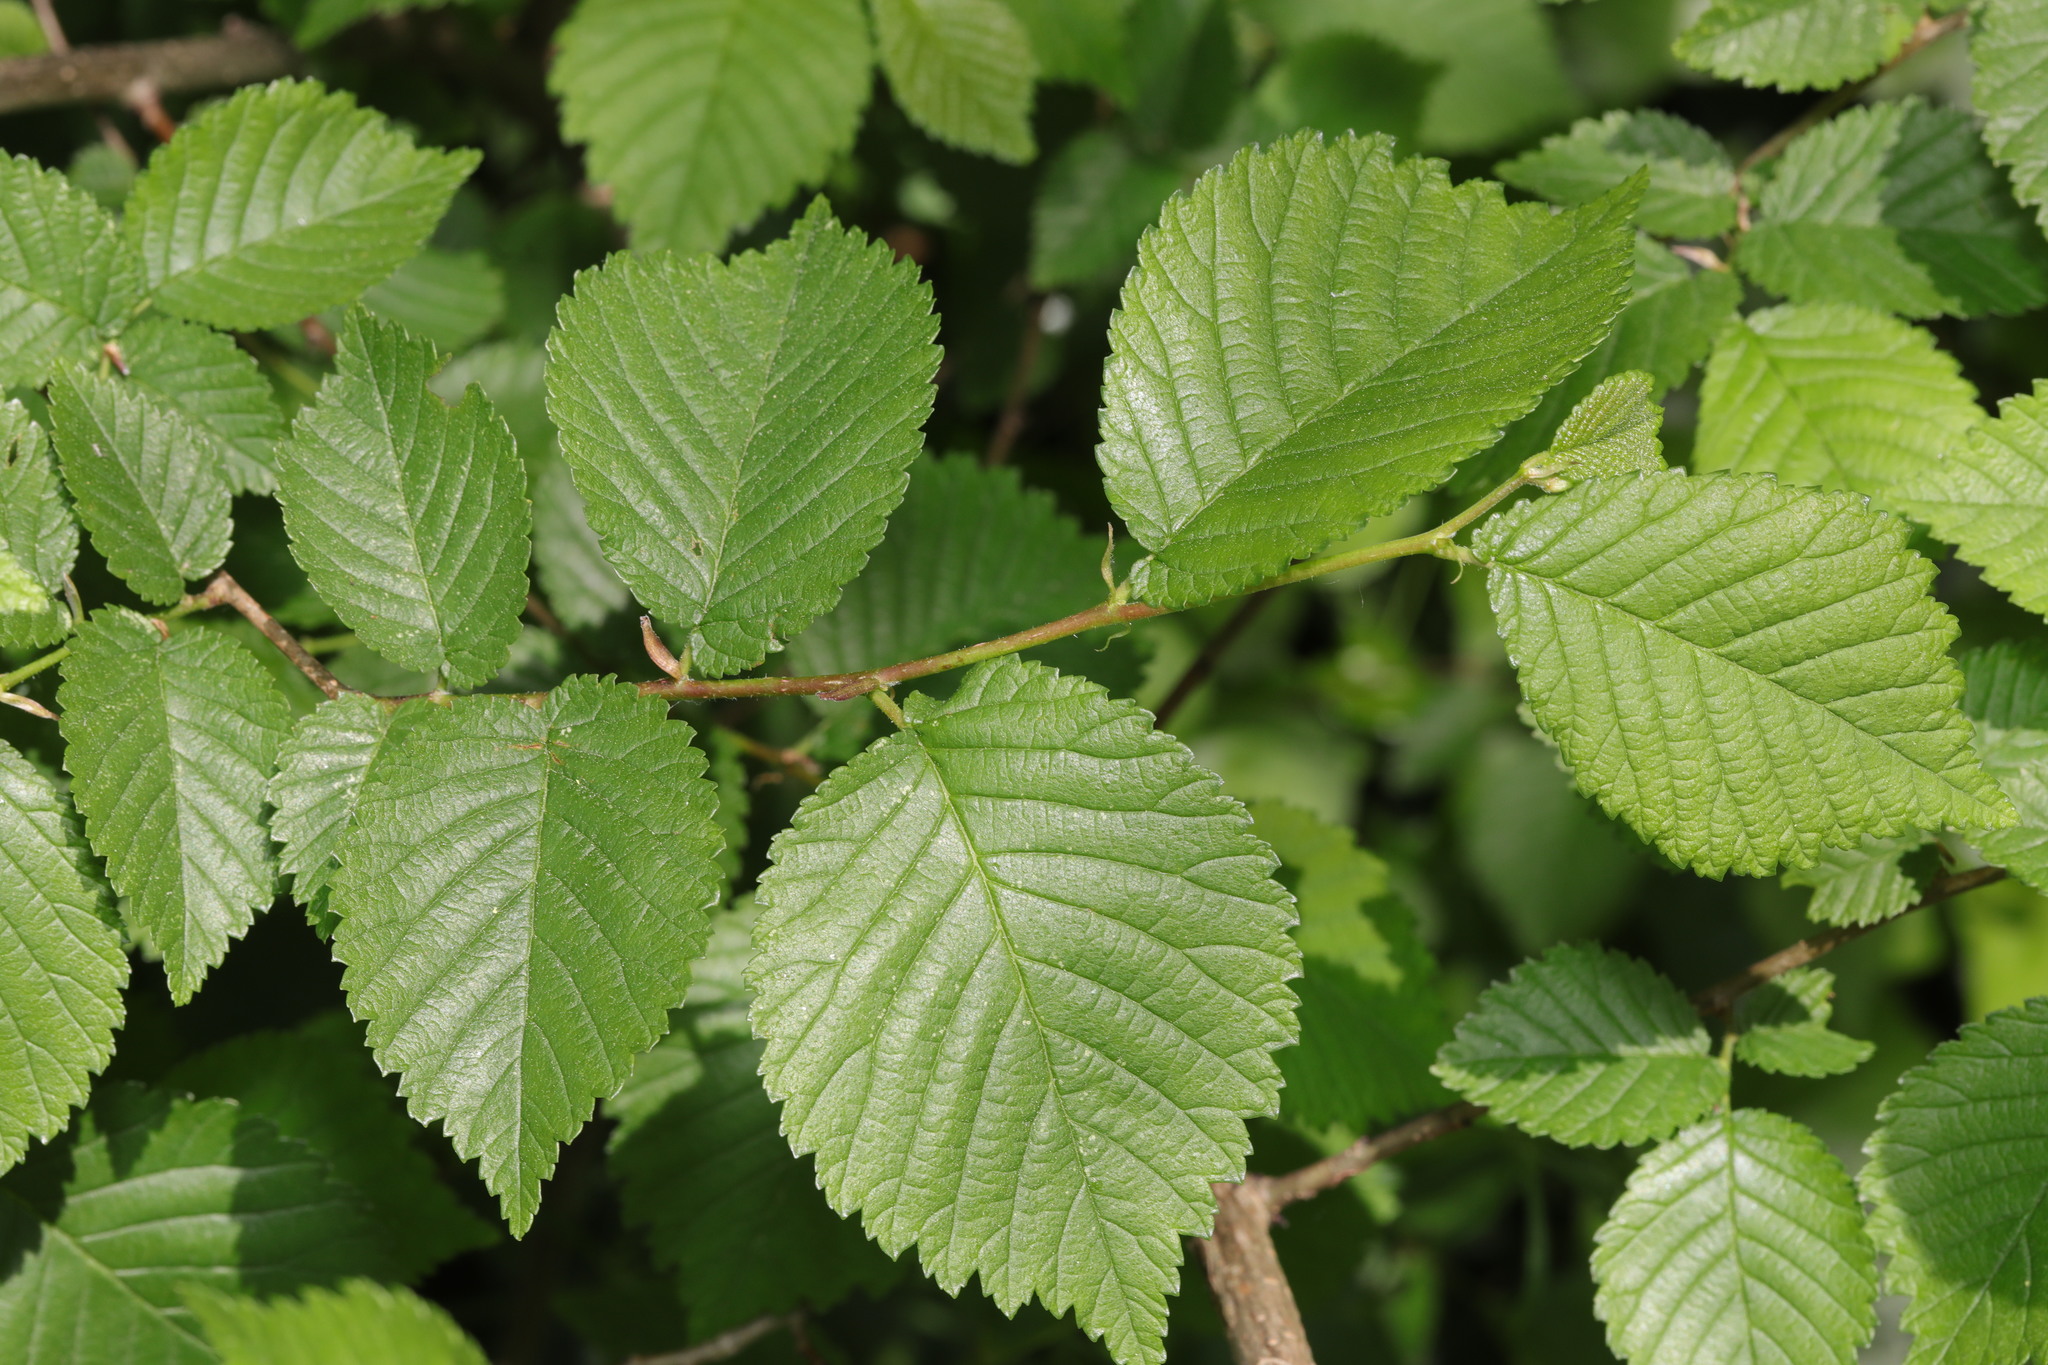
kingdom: Plantae
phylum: Tracheophyta
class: Magnoliopsida
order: Rosales
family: Ulmaceae
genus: Ulmus
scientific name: Ulmus minor
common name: Small-leaved elm
